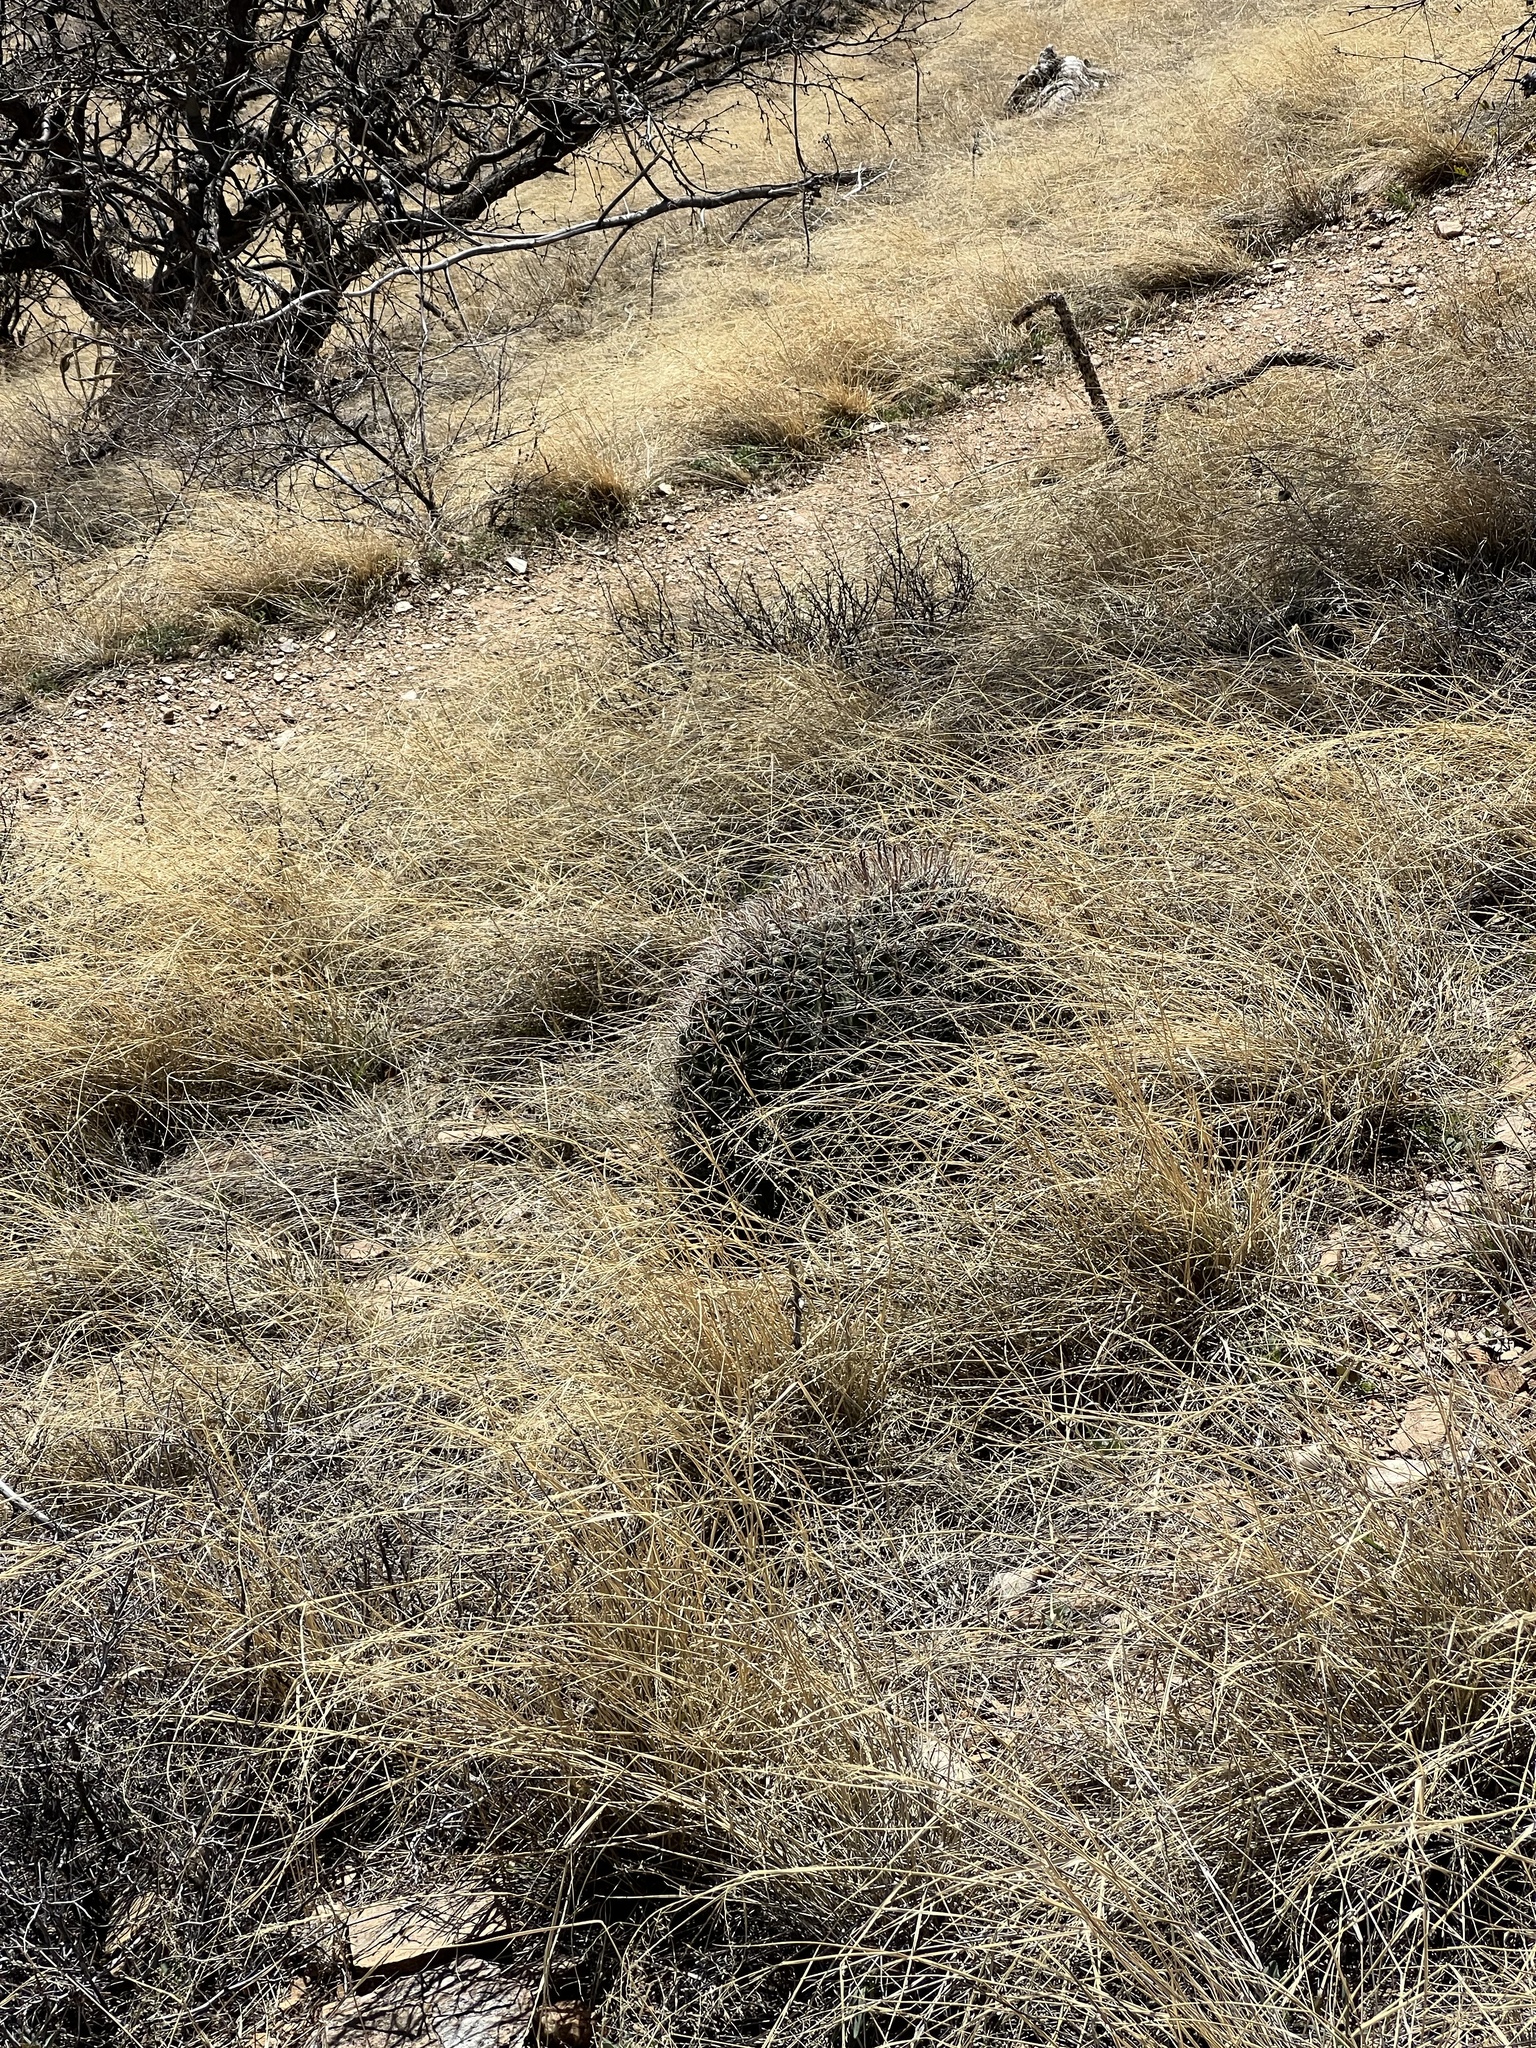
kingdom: Plantae
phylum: Tracheophyta
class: Magnoliopsida
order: Caryophyllales
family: Cactaceae
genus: Ferocactus
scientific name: Ferocactus wislizeni
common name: Candy barrel cactus
